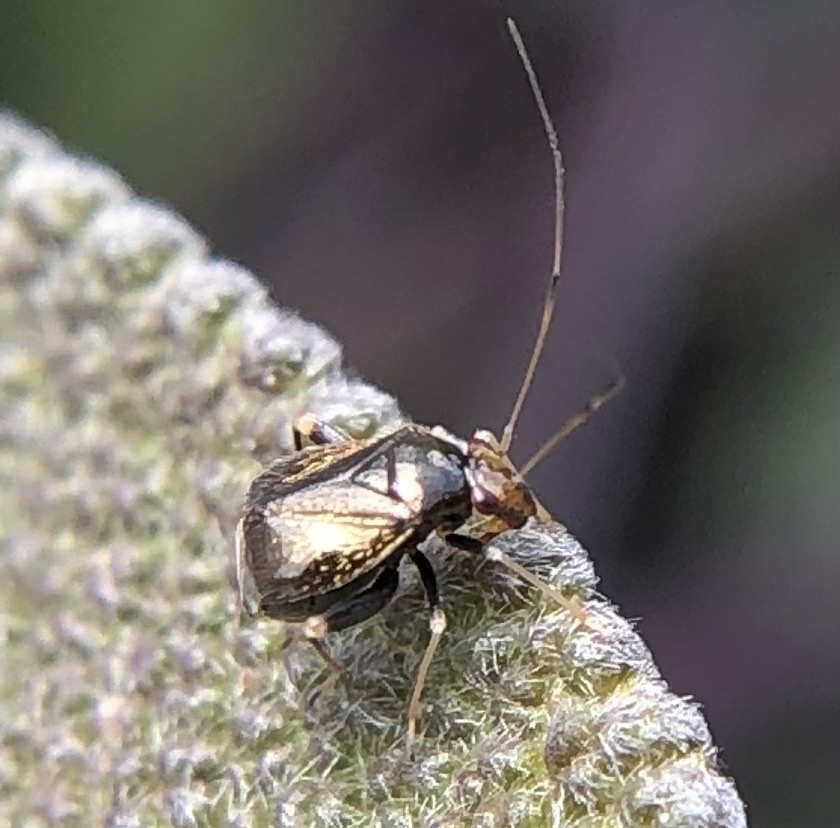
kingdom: Animalia
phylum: Arthropoda
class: Insecta
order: Hemiptera
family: Miridae
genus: Halticus
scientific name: Halticus luteicollis
